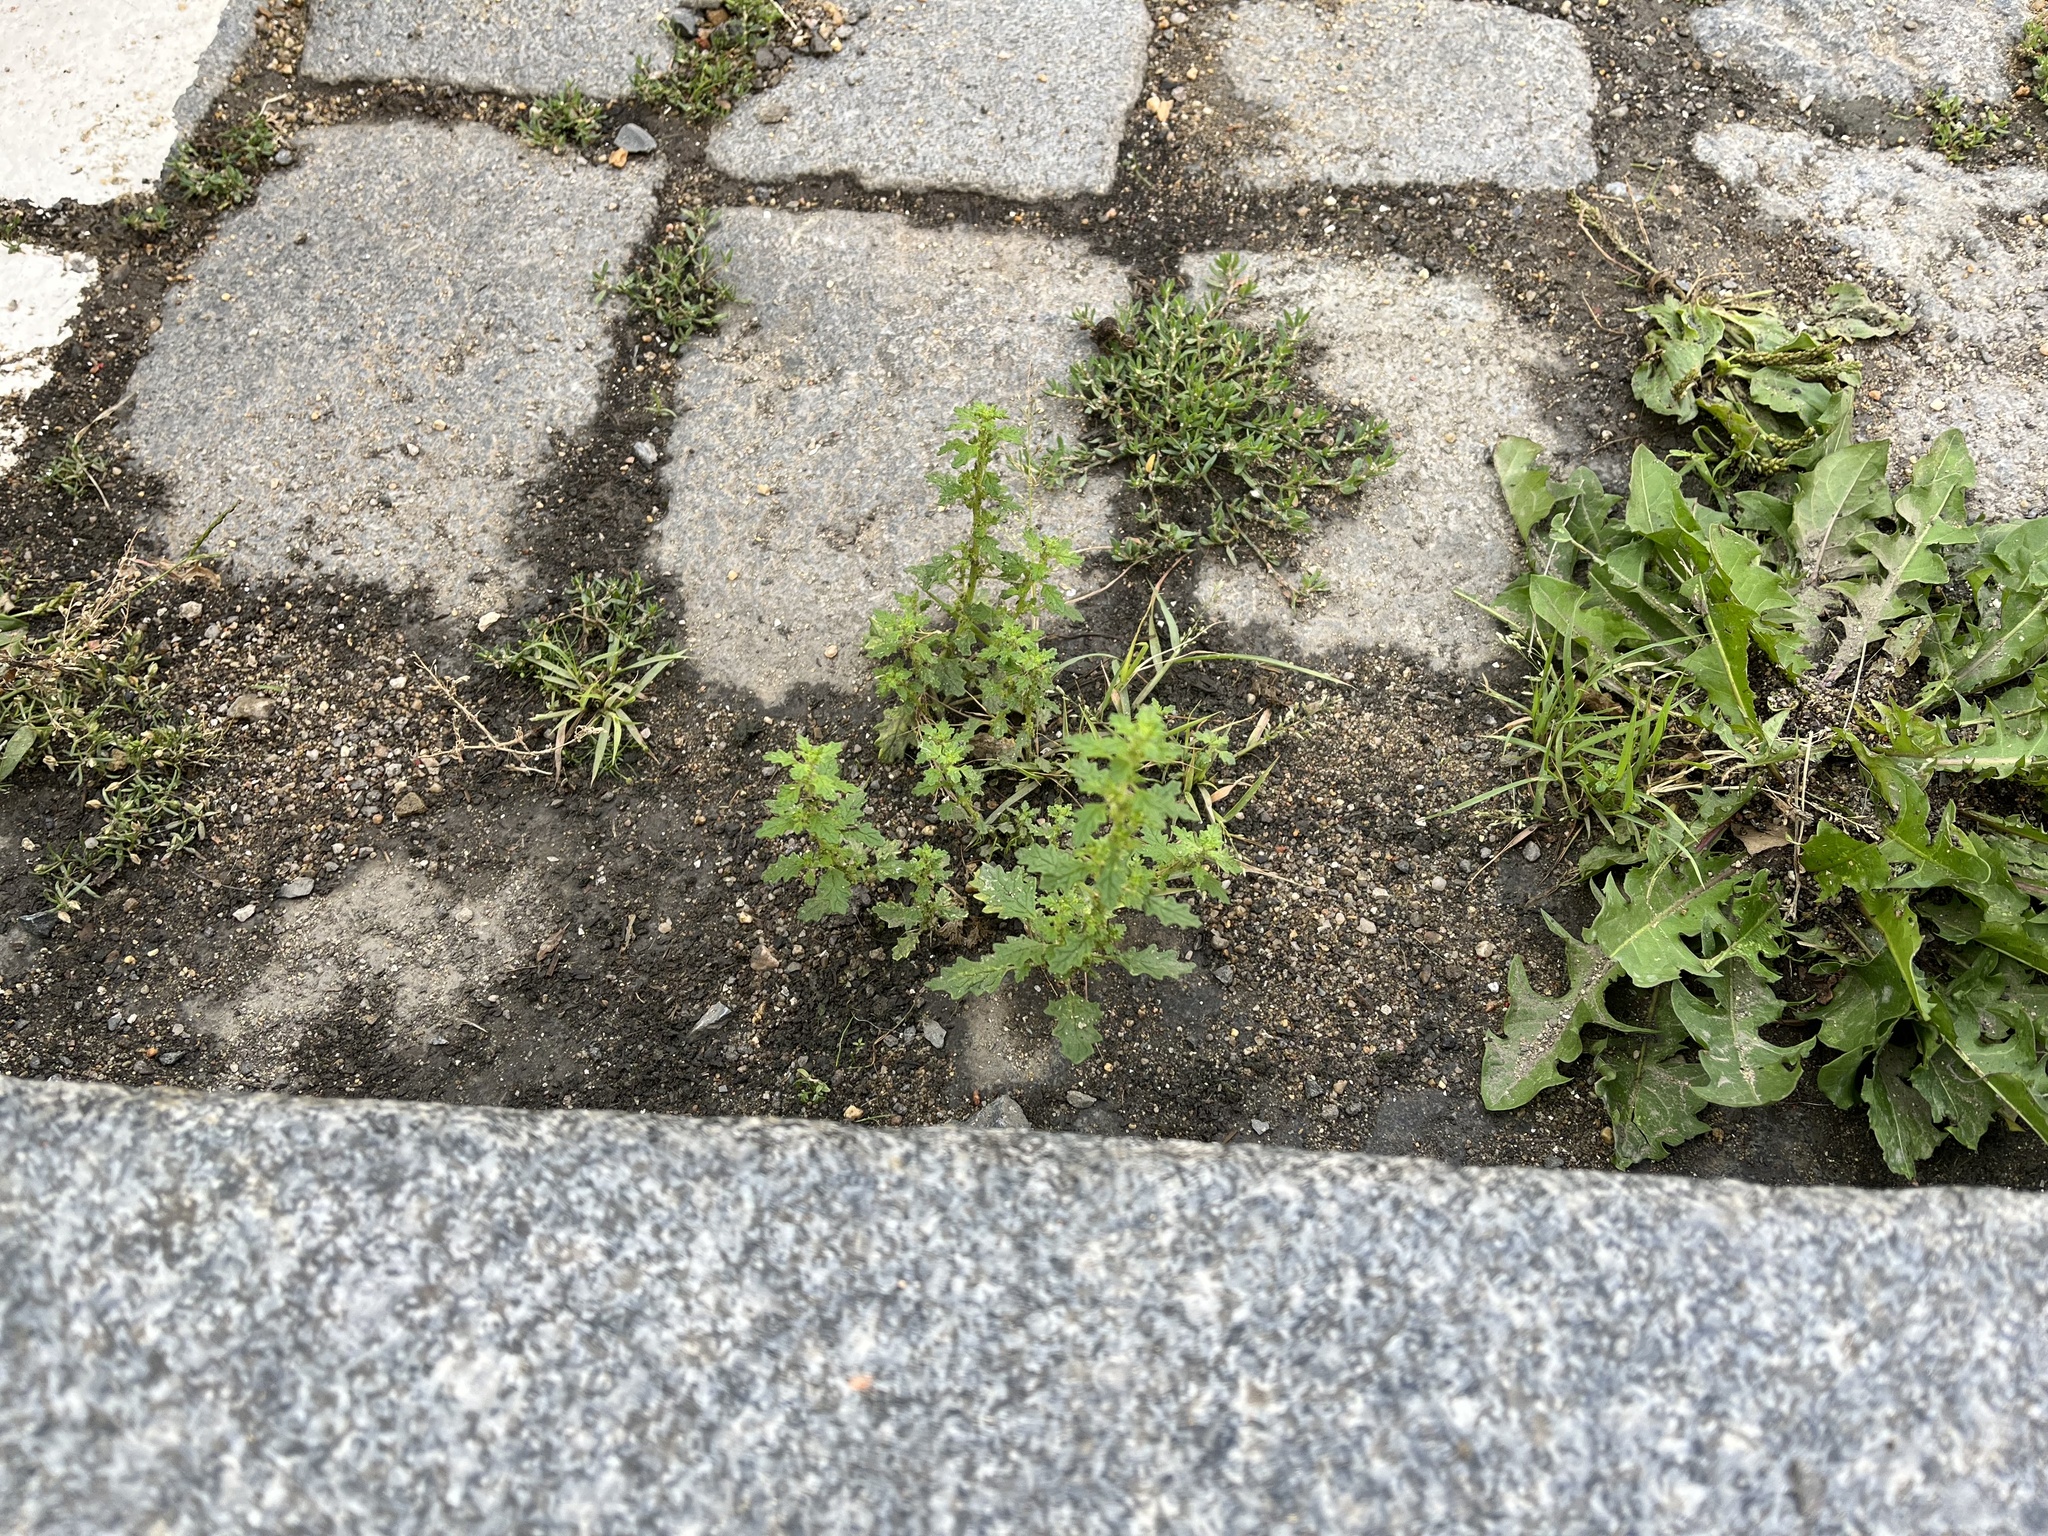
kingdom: Plantae
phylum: Tracheophyta
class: Magnoliopsida
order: Caryophyllales
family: Amaranthaceae
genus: Dysphania
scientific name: Dysphania pumilio
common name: Clammy goosefoot
